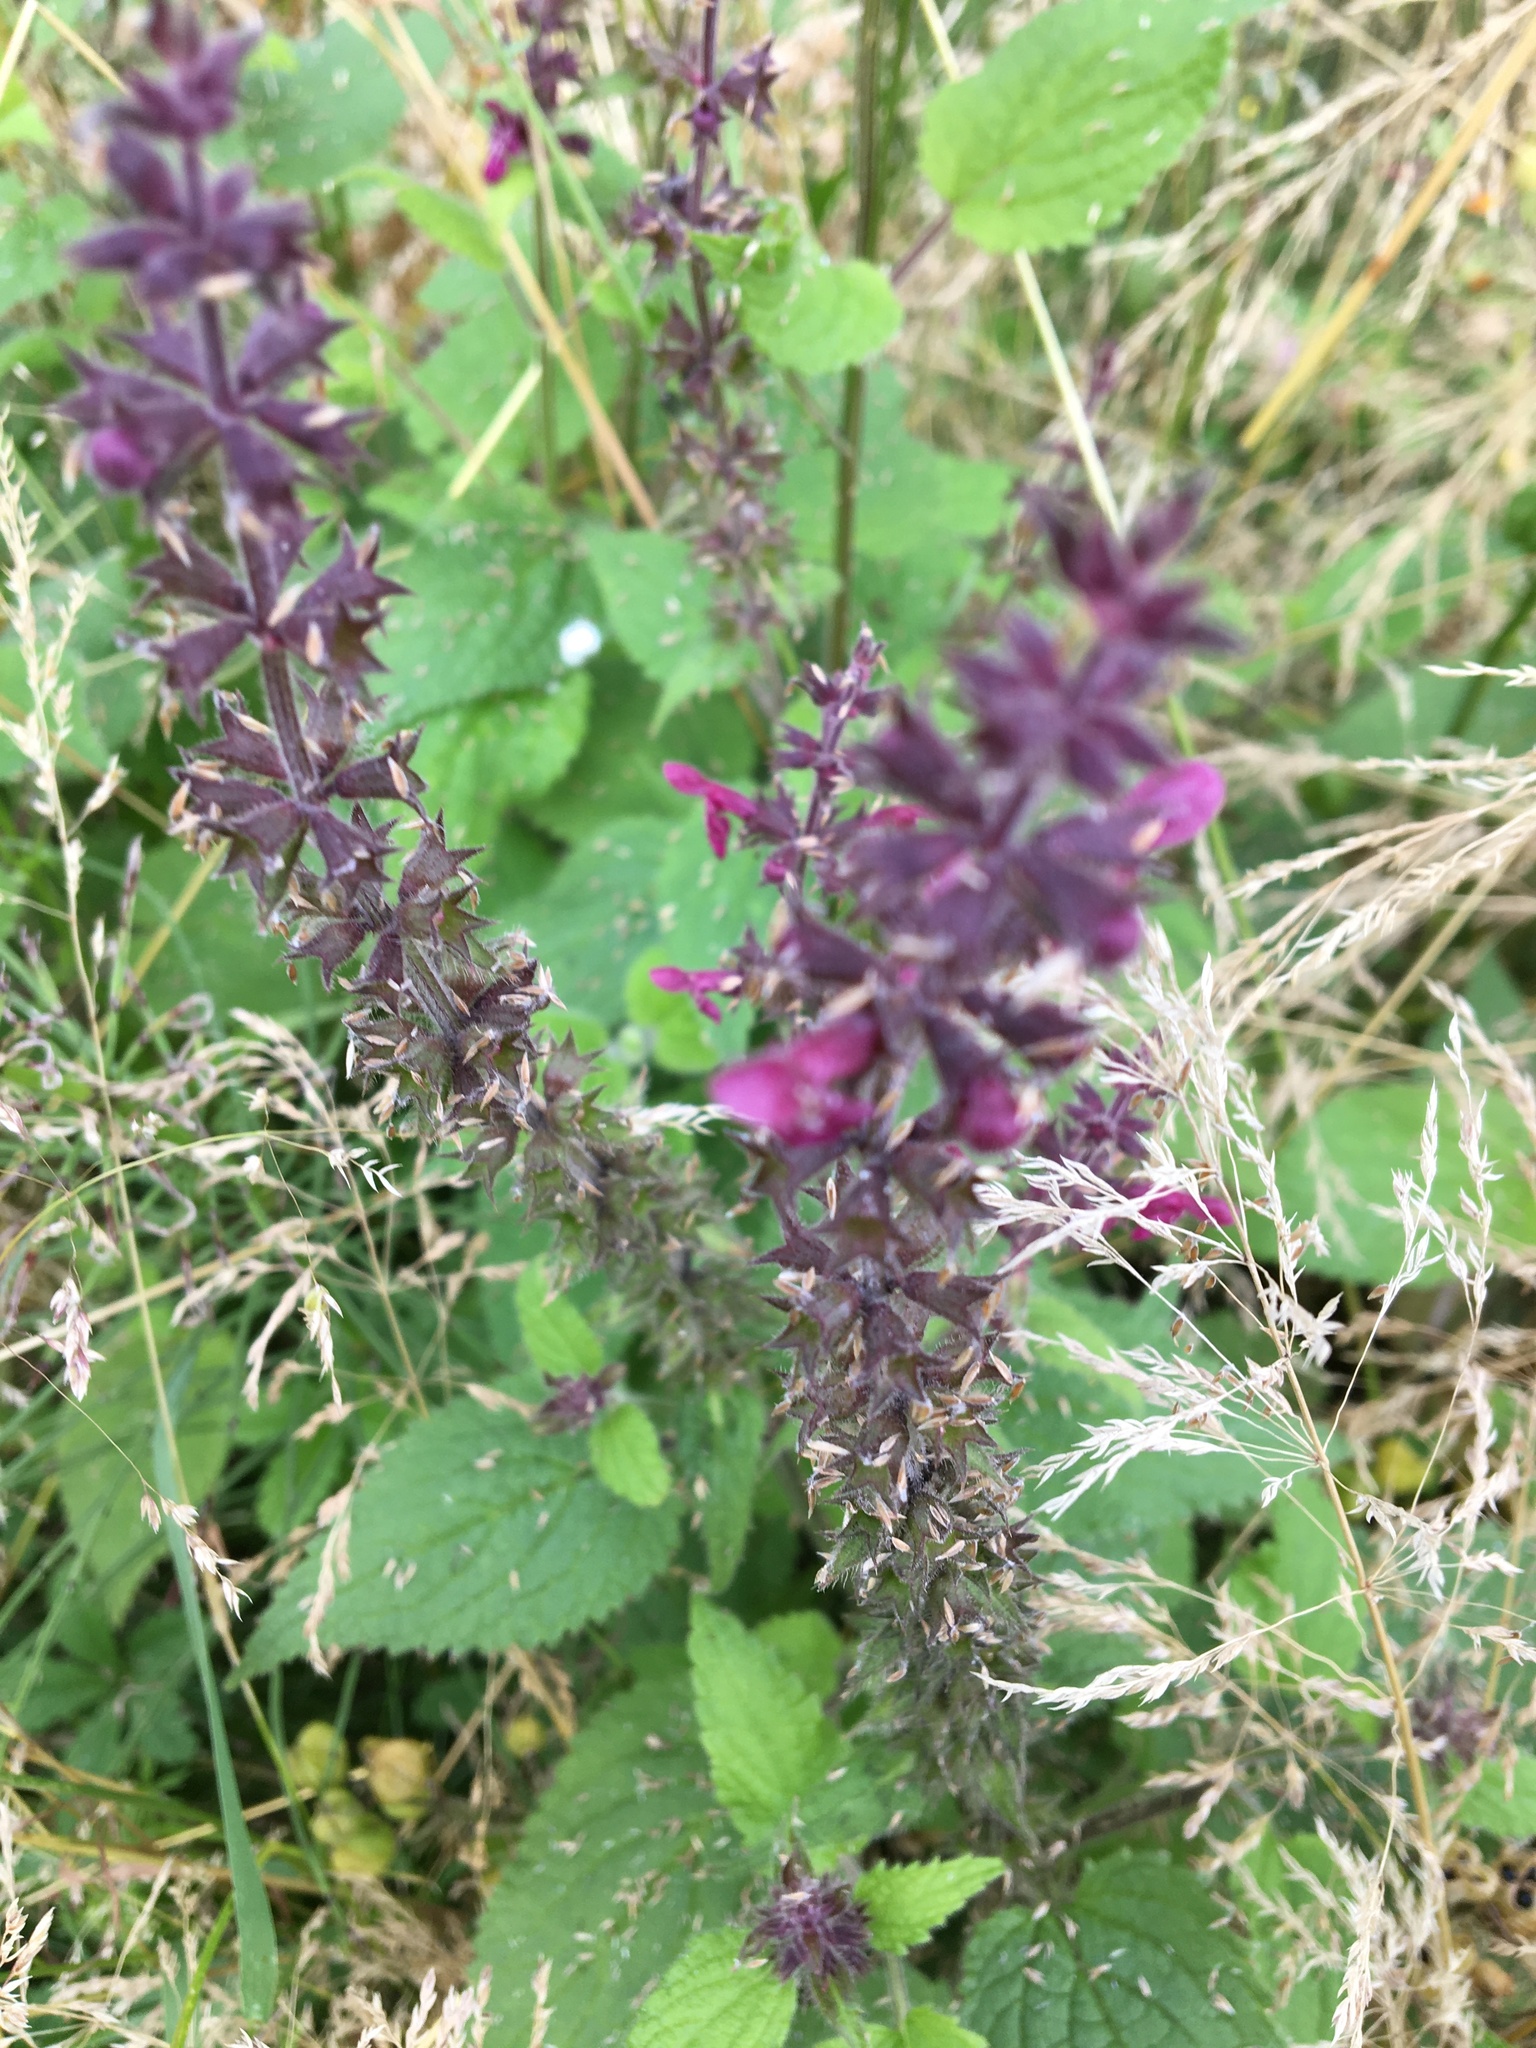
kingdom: Plantae
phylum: Tracheophyta
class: Magnoliopsida
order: Lamiales
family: Lamiaceae
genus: Stachys
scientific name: Stachys sylvatica
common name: Hedge woundwort
